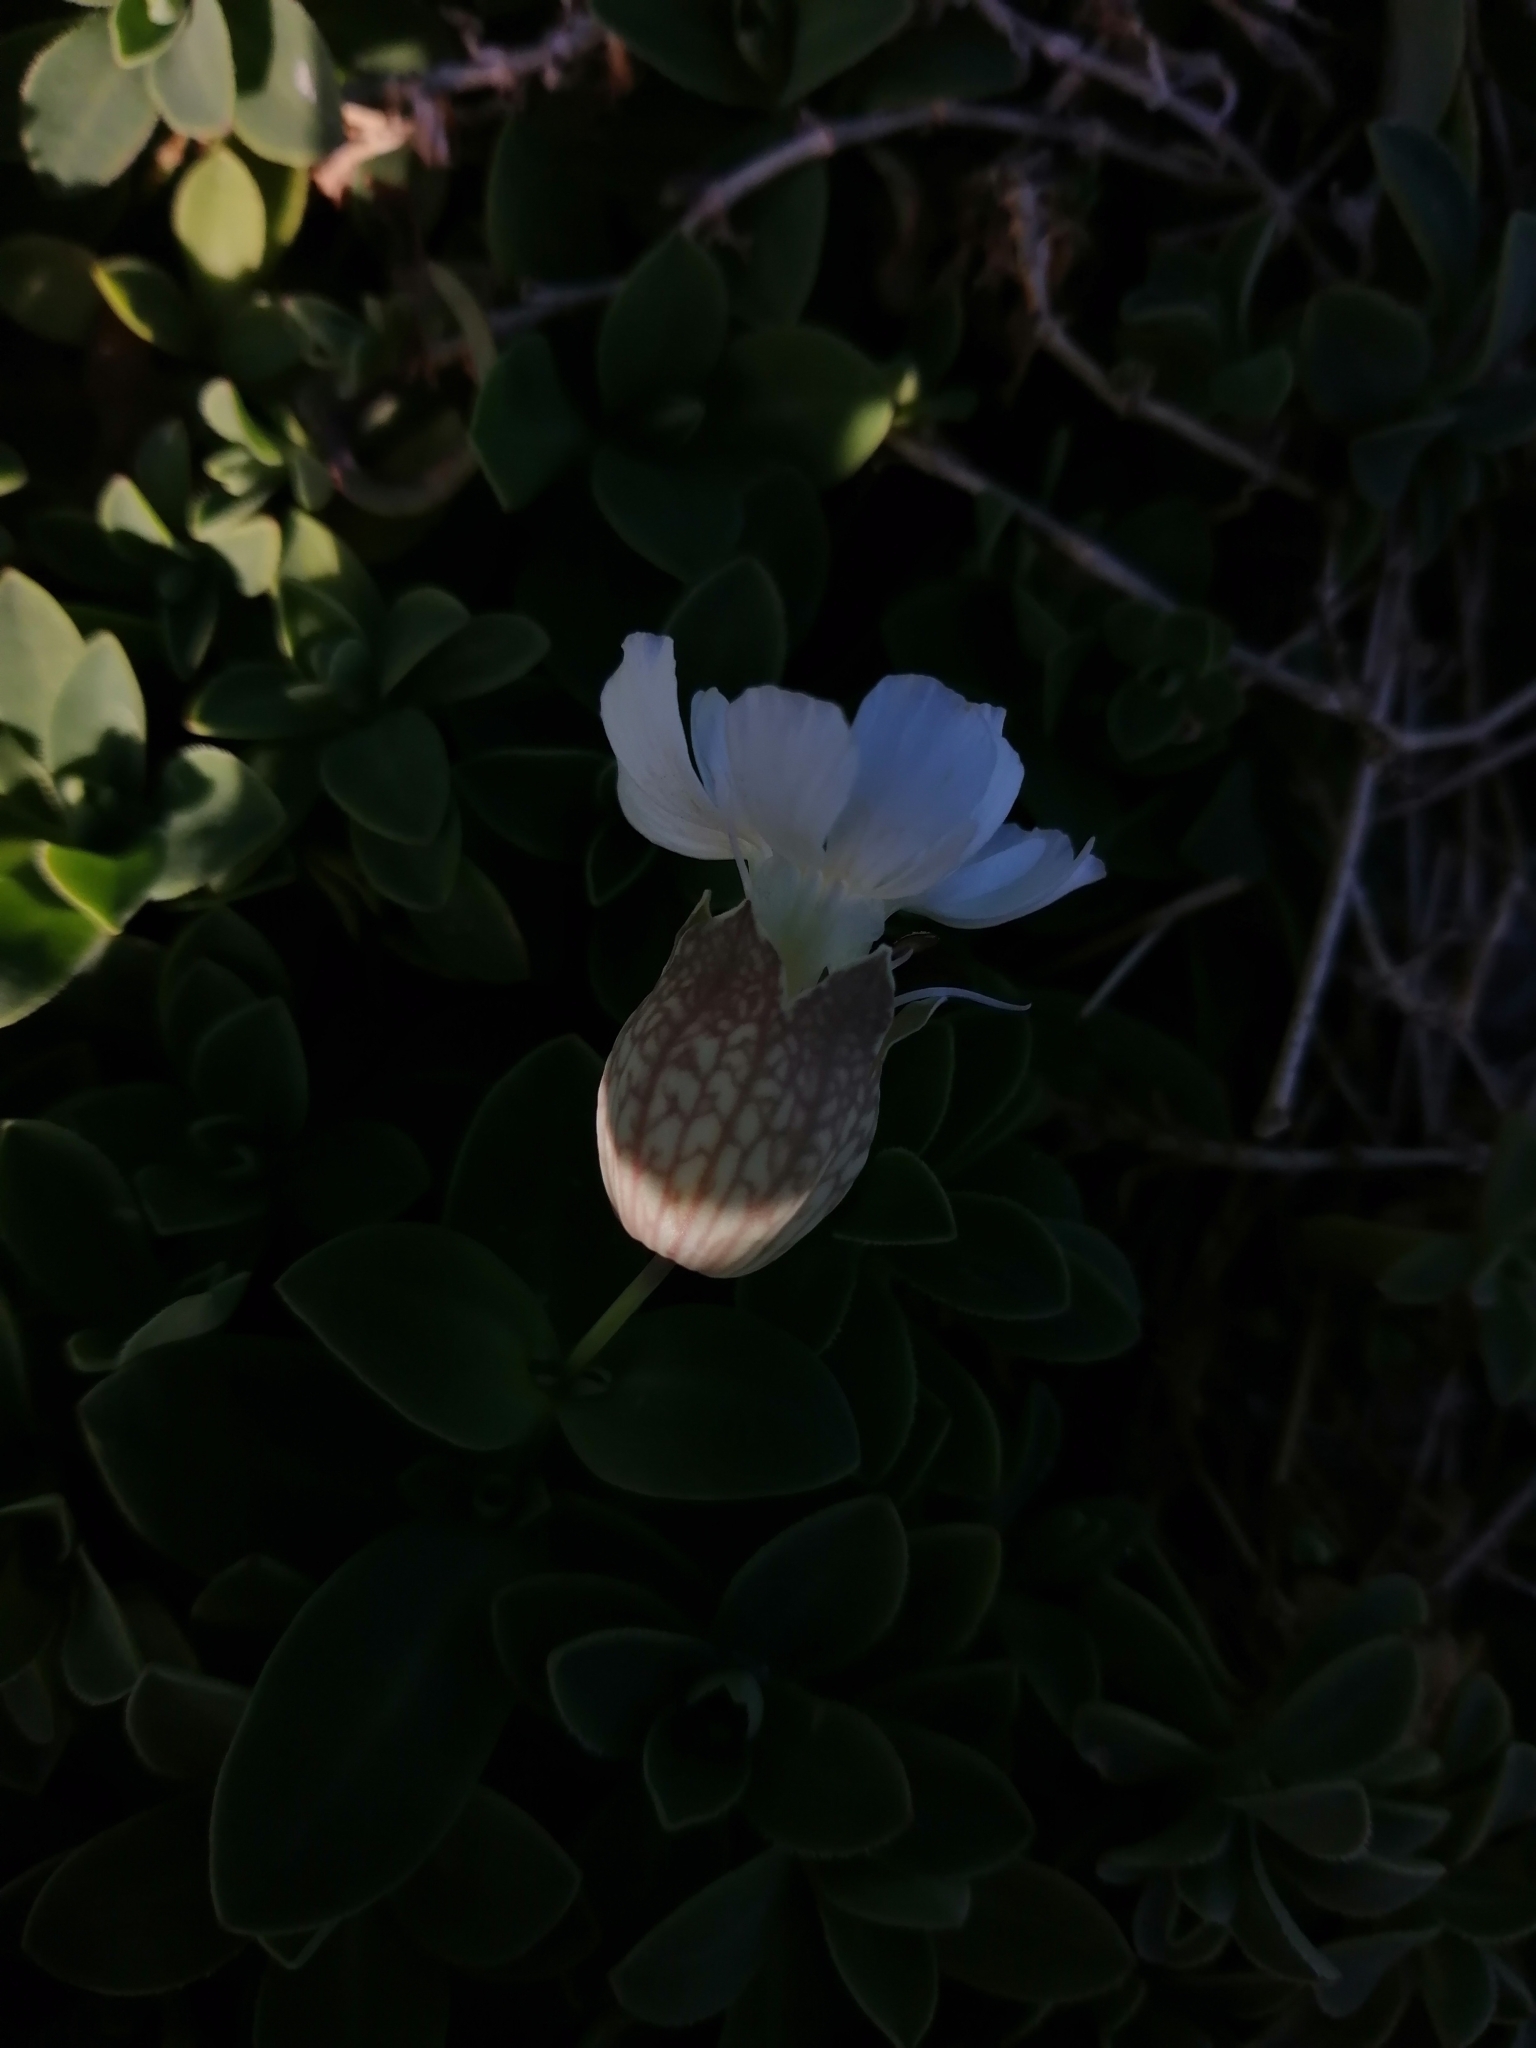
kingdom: Plantae
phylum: Tracheophyta
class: Magnoliopsida
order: Caryophyllales
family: Caryophyllaceae
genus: Silene
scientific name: Silene uniflora
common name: Sea campion
